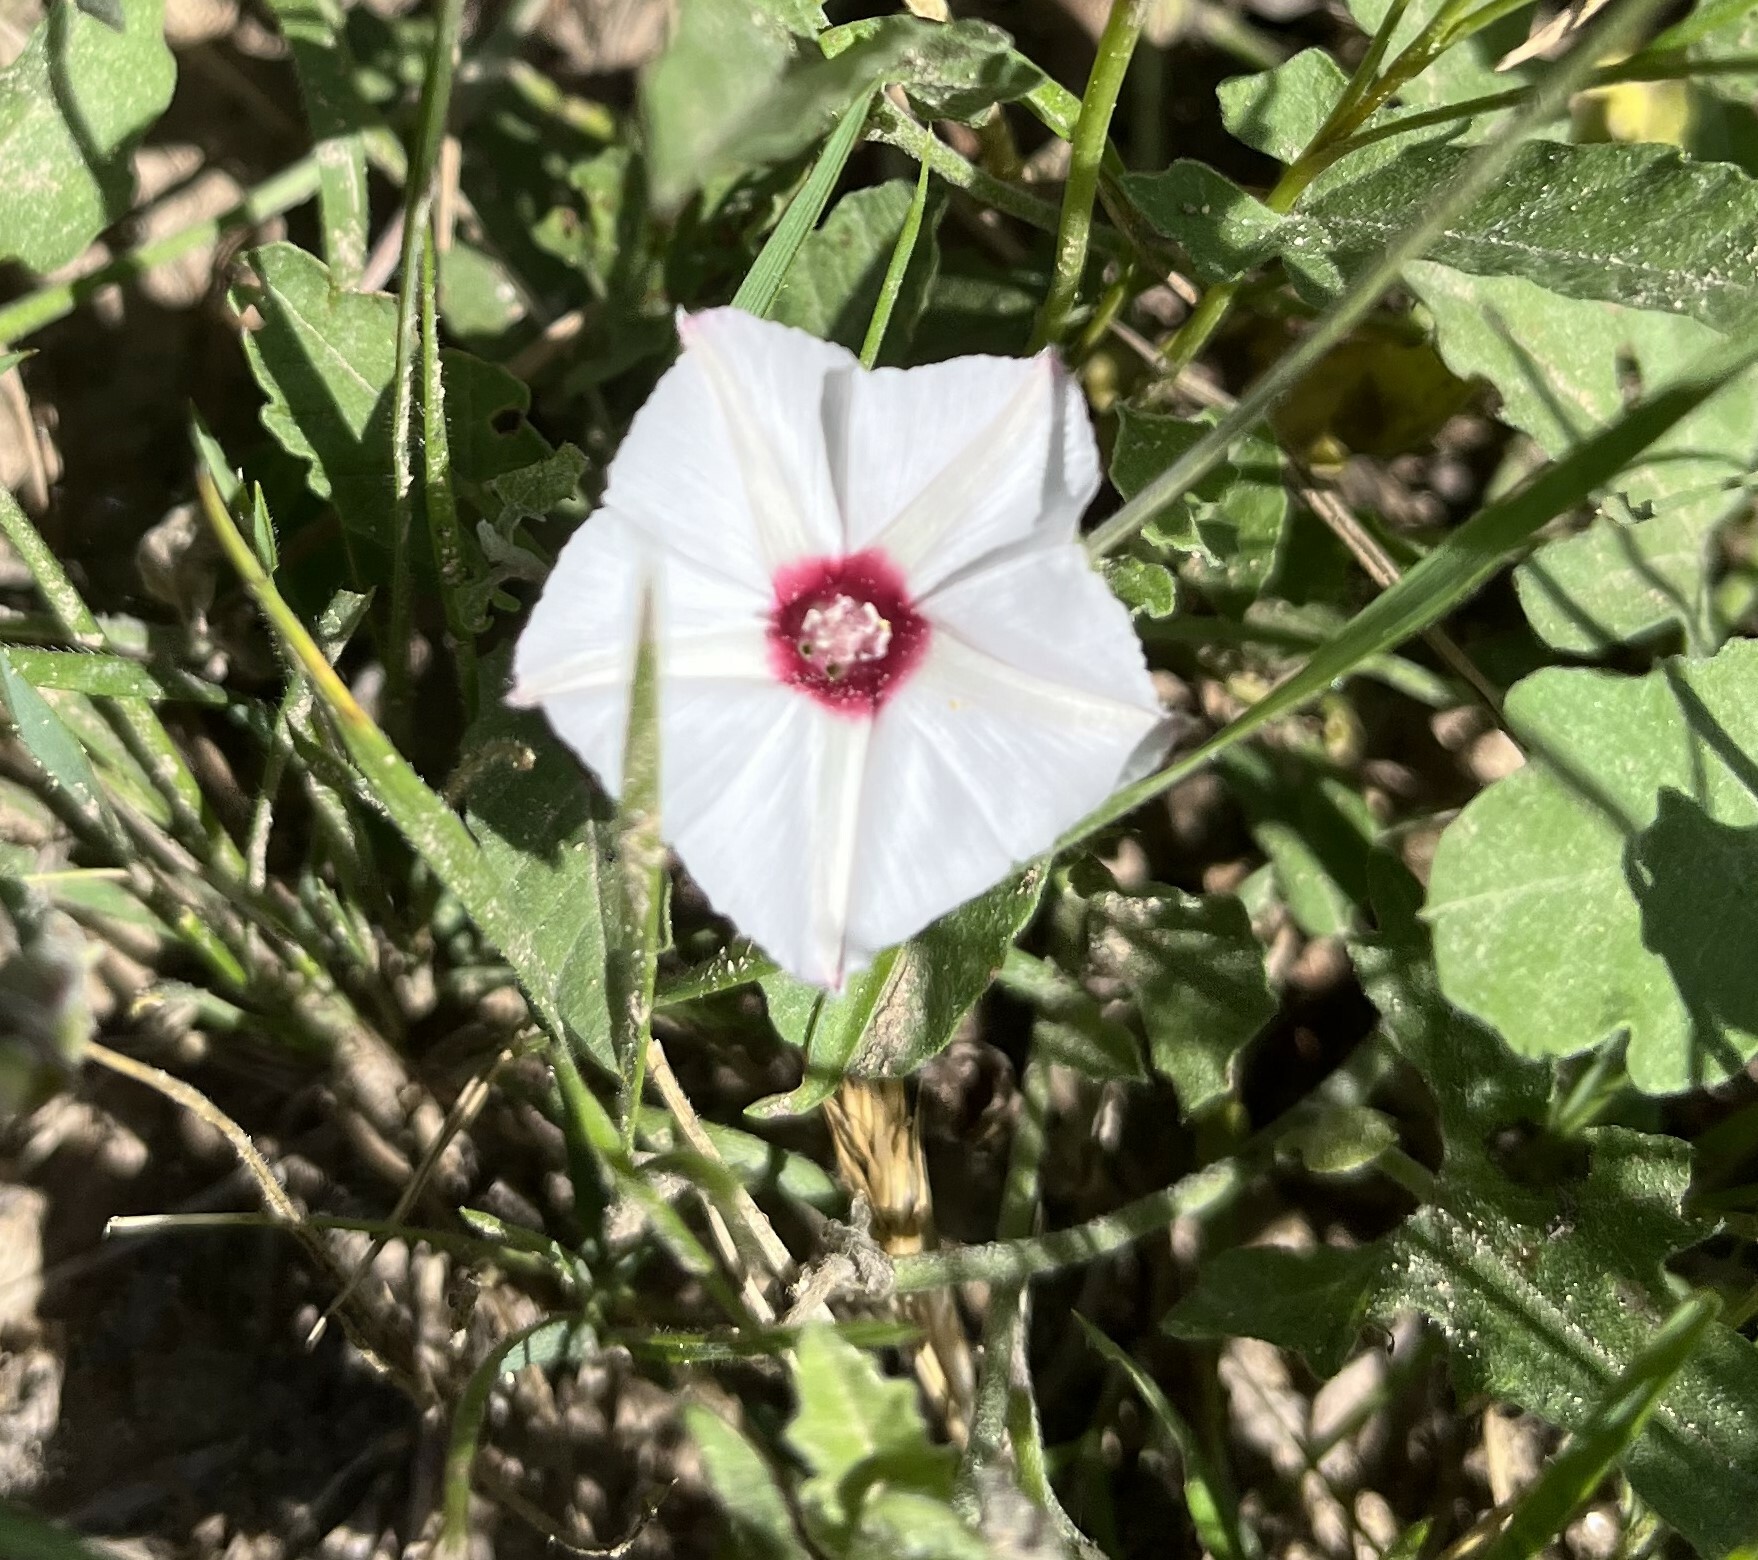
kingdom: Plantae
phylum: Tracheophyta
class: Magnoliopsida
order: Solanales
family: Convolvulaceae
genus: Convolvulus
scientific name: Convolvulus equitans
